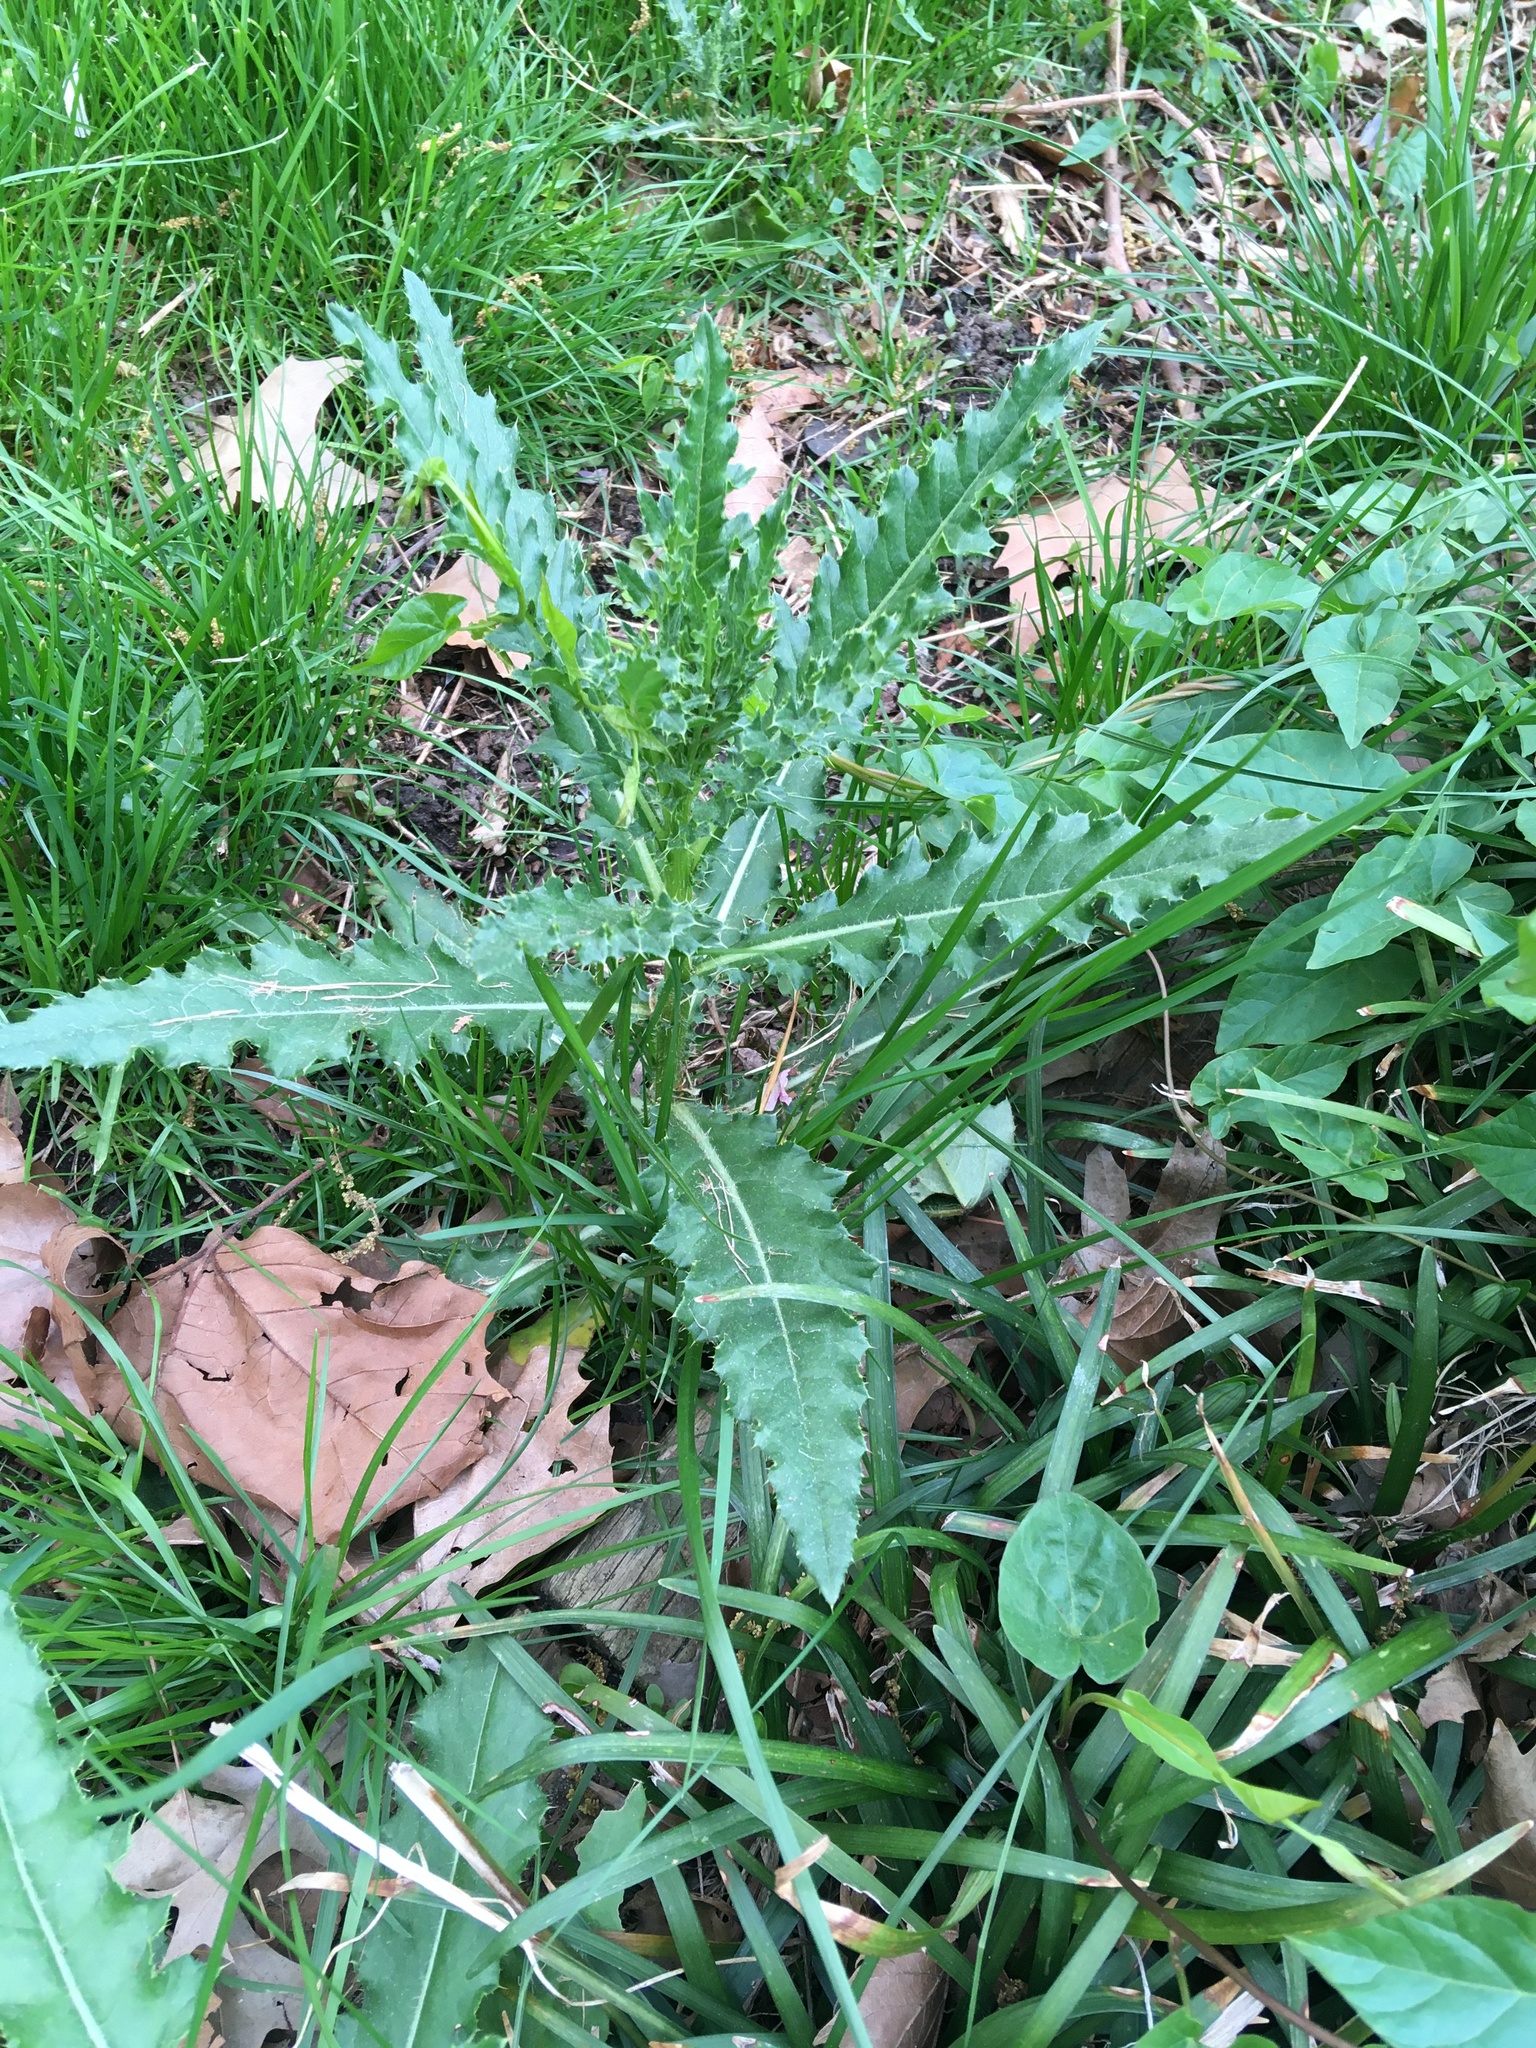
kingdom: Plantae
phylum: Tracheophyta
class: Magnoliopsida
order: Asterales
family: Asteraceae
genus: Cirsium
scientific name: Cirsium arvense
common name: Creeping thistle
